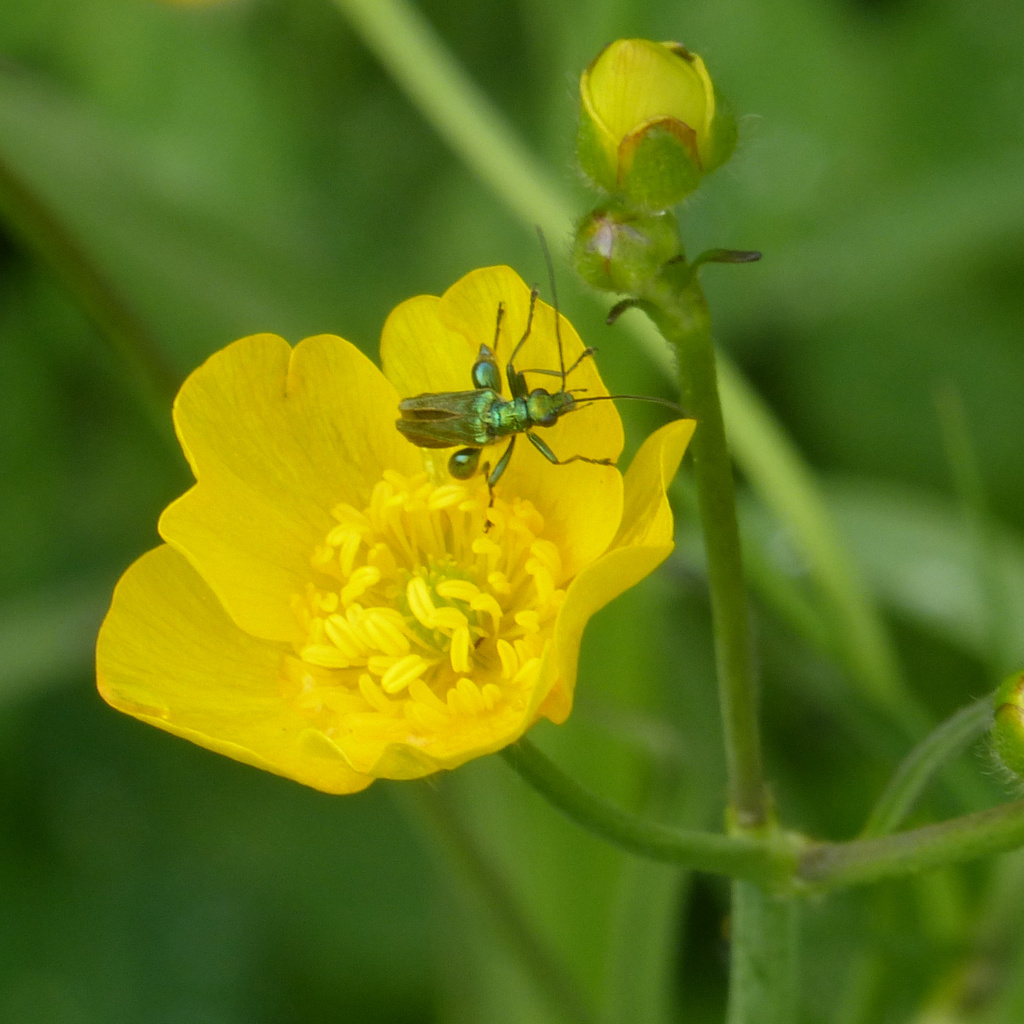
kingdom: Animalia
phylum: Arthropoda
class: Insecta
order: Coleoptera
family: Oedemeridae
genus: Oedemera
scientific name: Oedemera nobilis
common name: Swollen-thighed beetle
